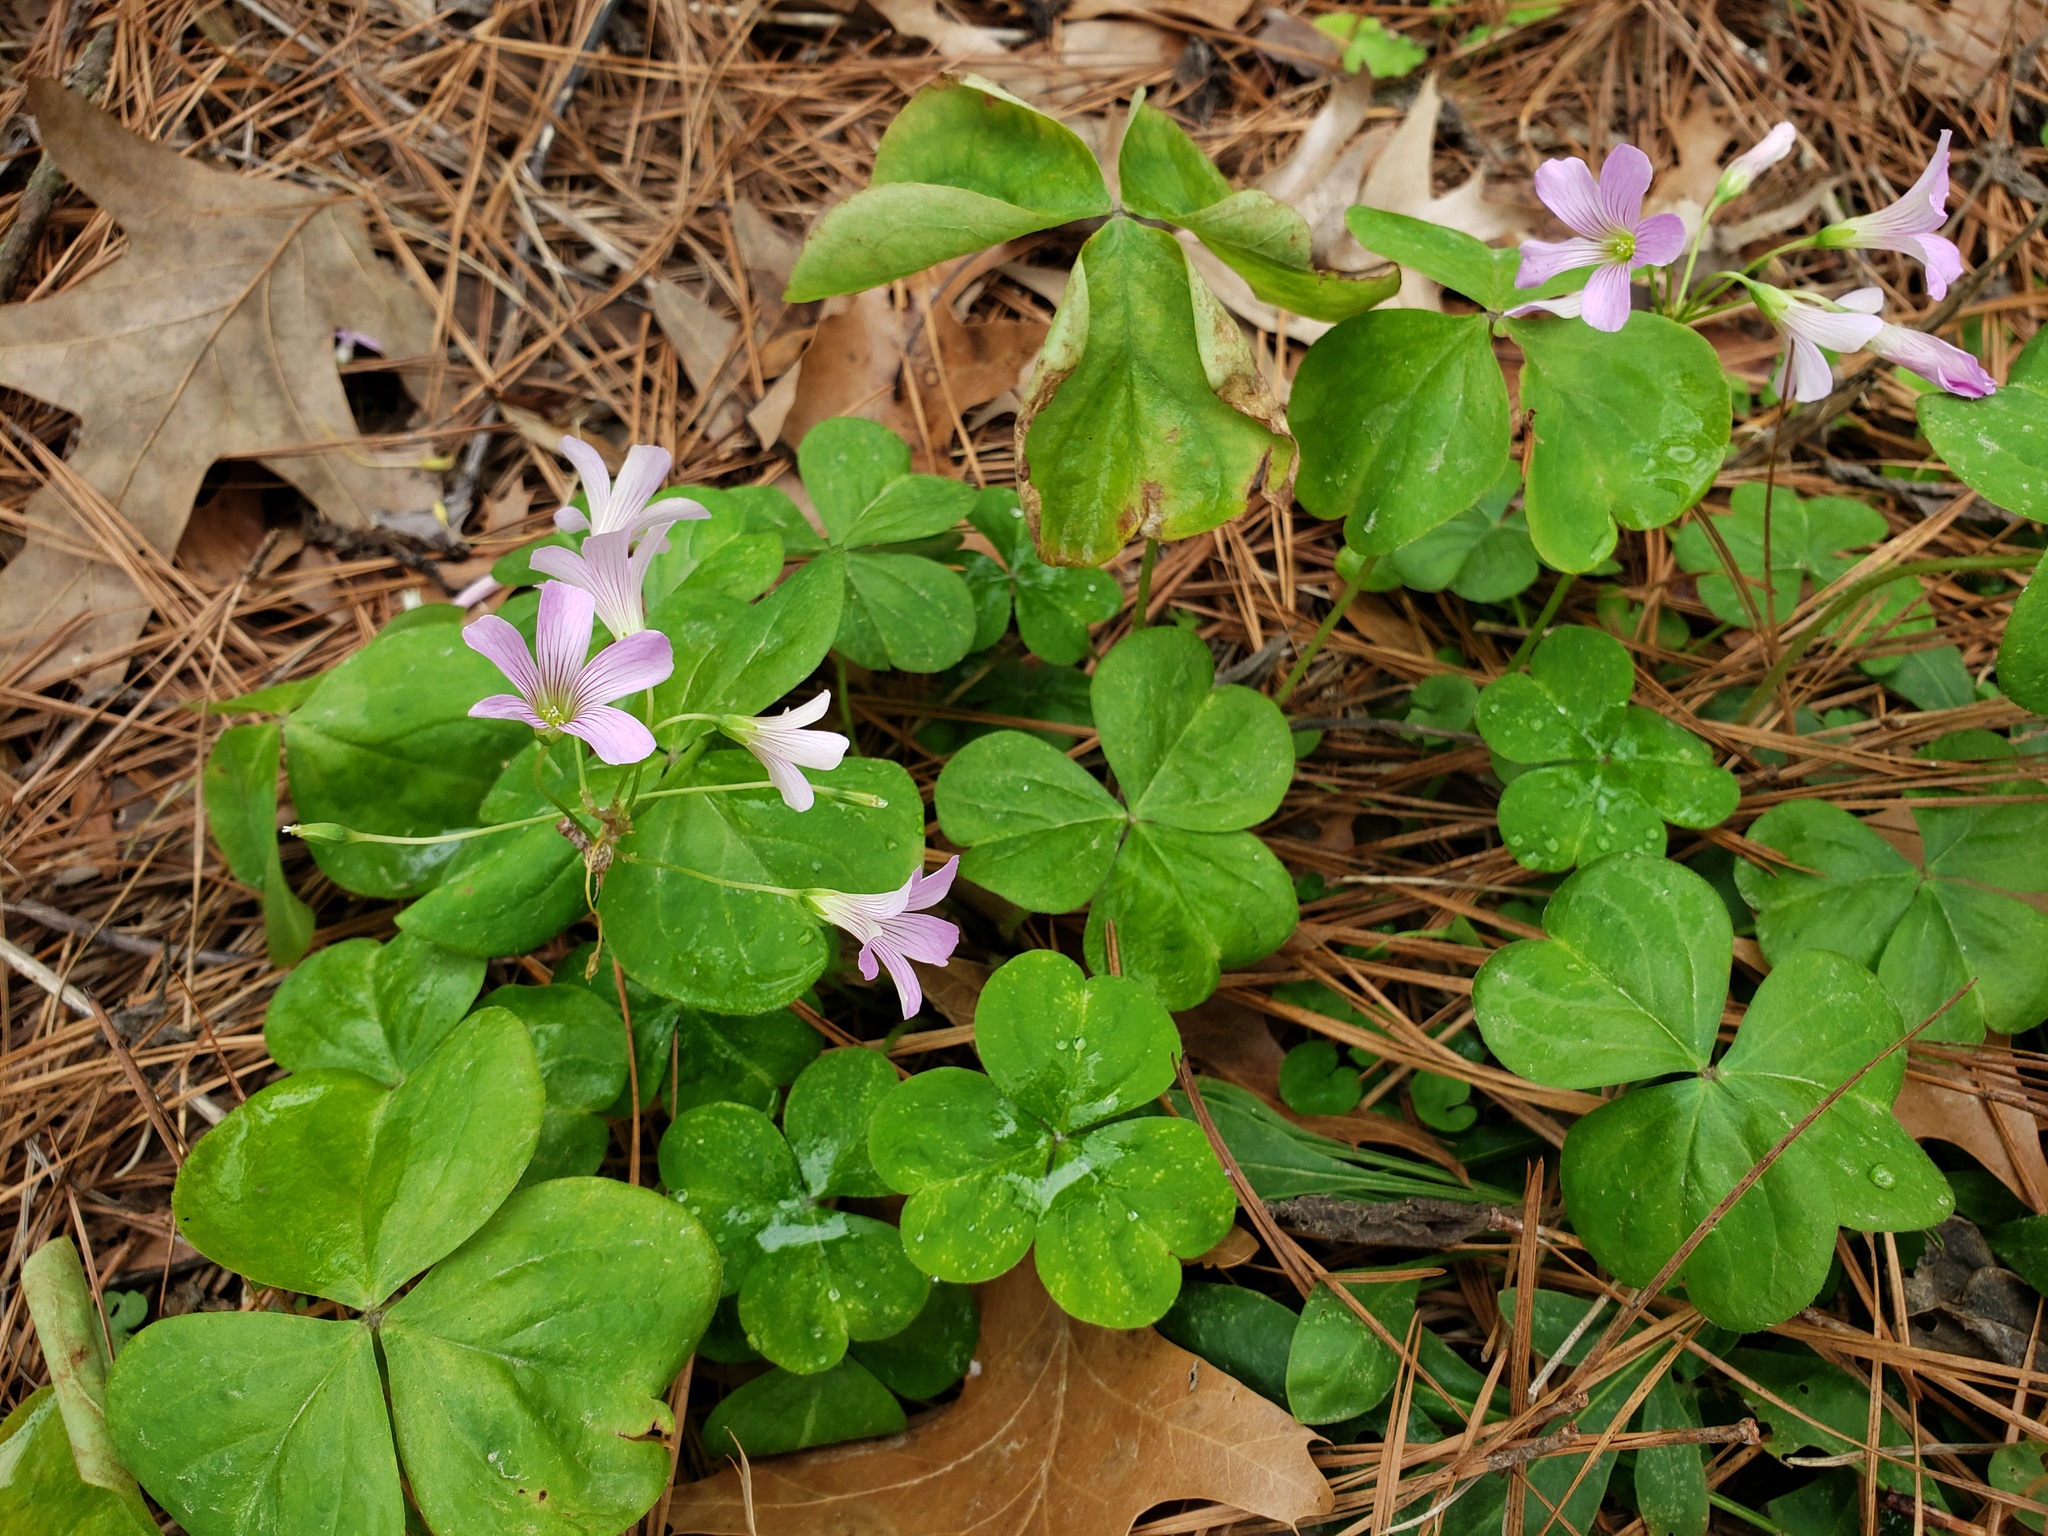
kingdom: Plantae
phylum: Tracheophyta
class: Magnoliopsida
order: Oxalidales
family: Oxalidaceae
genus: Oxalis
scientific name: Oxalis debilis
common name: Large-flowered pink-sorrel
